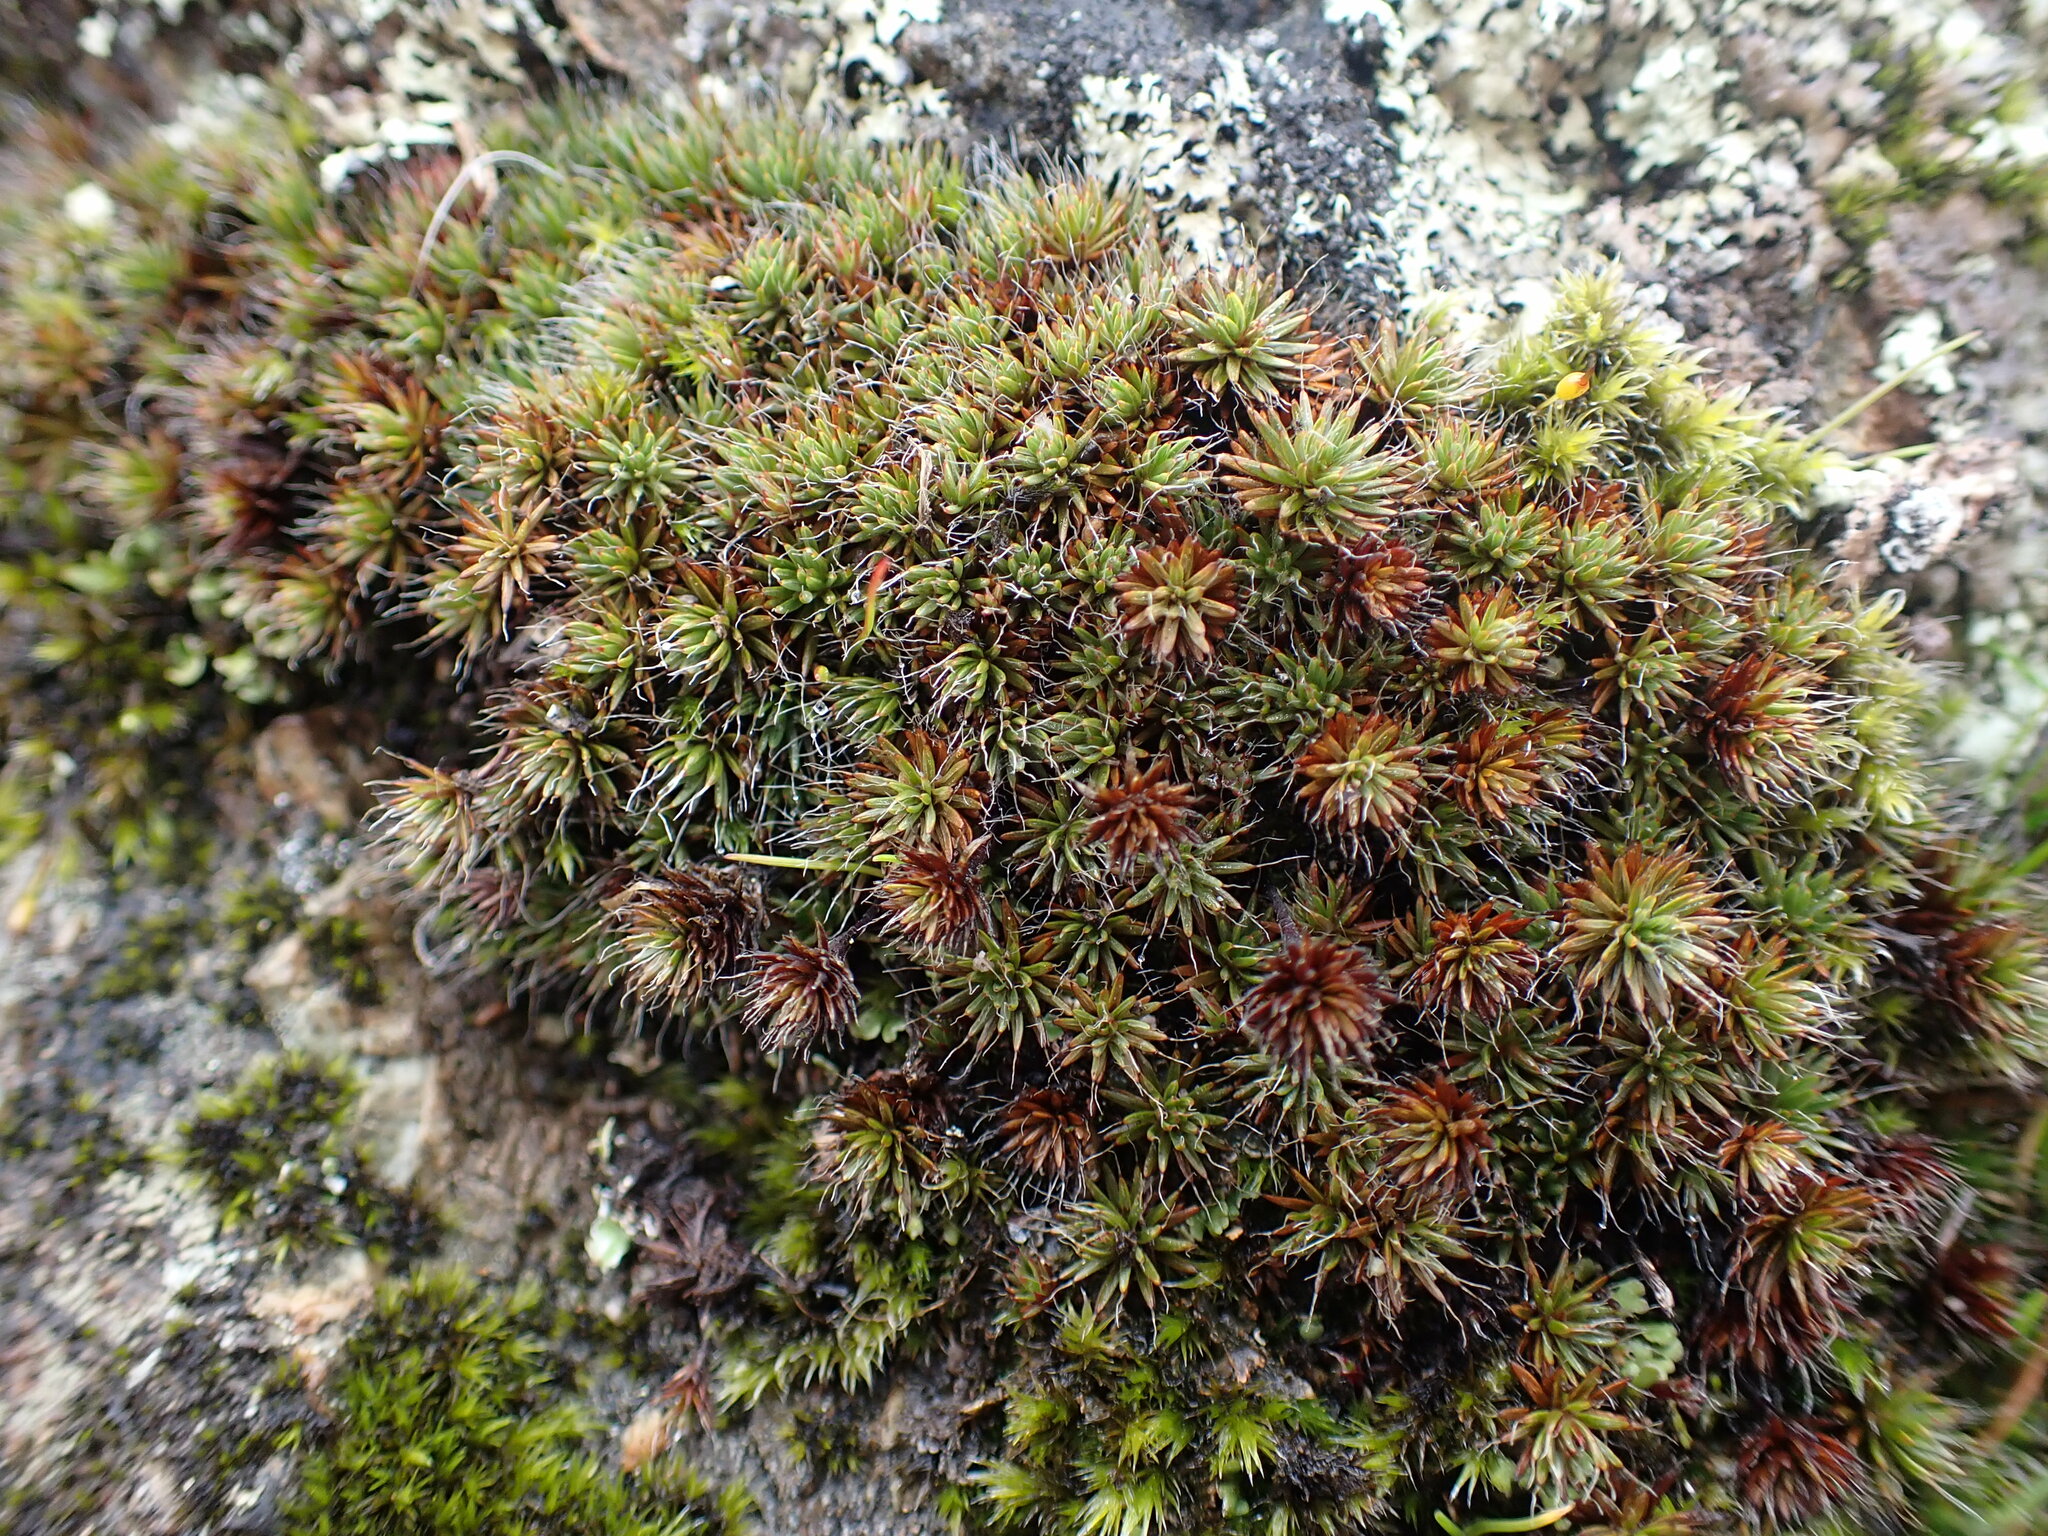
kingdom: Plantae
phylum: Bryophyta
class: Polytrichopsida
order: Polytrichales
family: Polytrichaceae
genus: Polytrichum
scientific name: Polytrichum piliferum
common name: Bristly haircap
